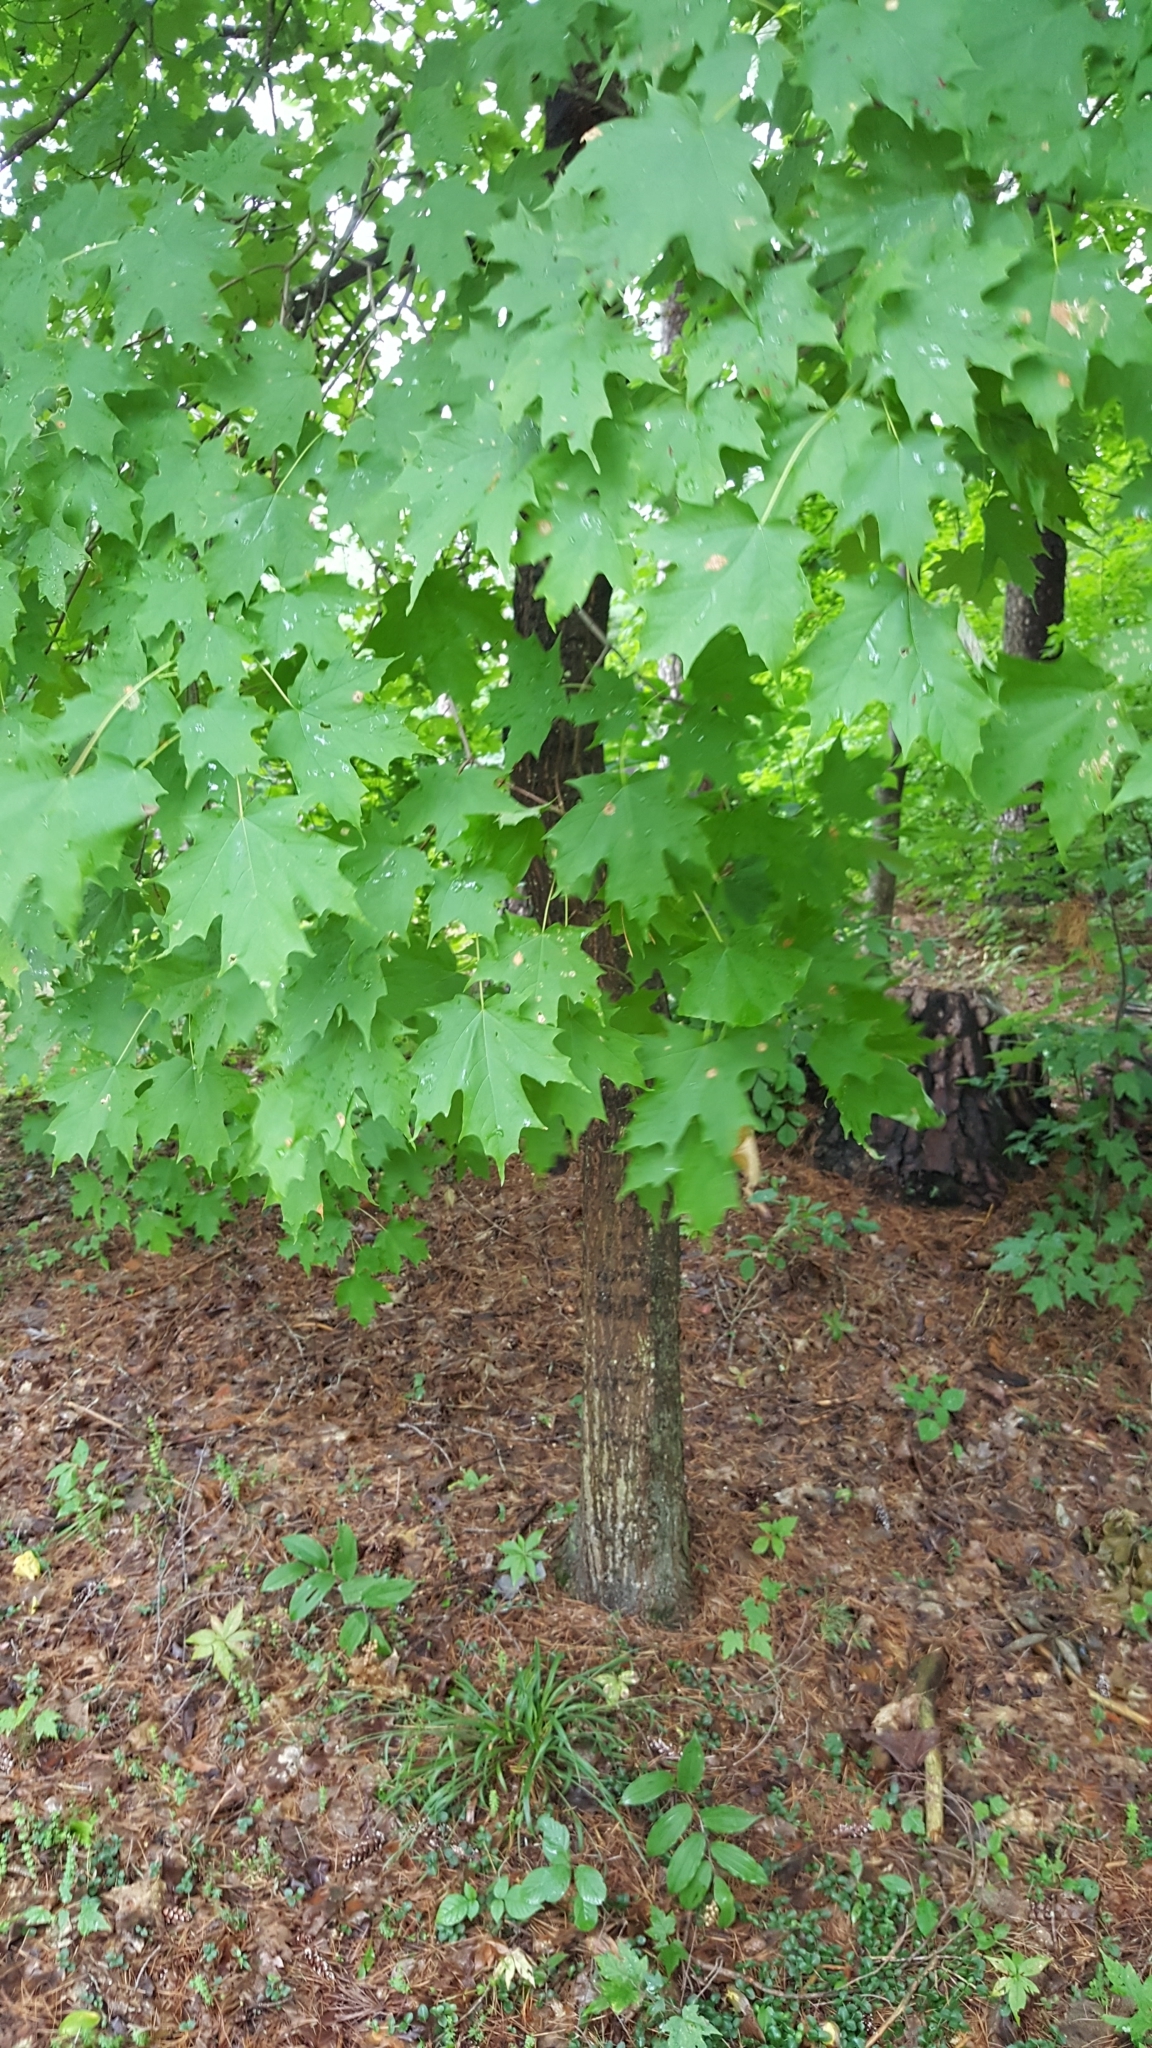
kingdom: Plantae
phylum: Tracheophyta
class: Magnoliopsida
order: Sapindales
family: Sapindaceae
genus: Acer
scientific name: Acer saccharum
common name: Sugar maple
